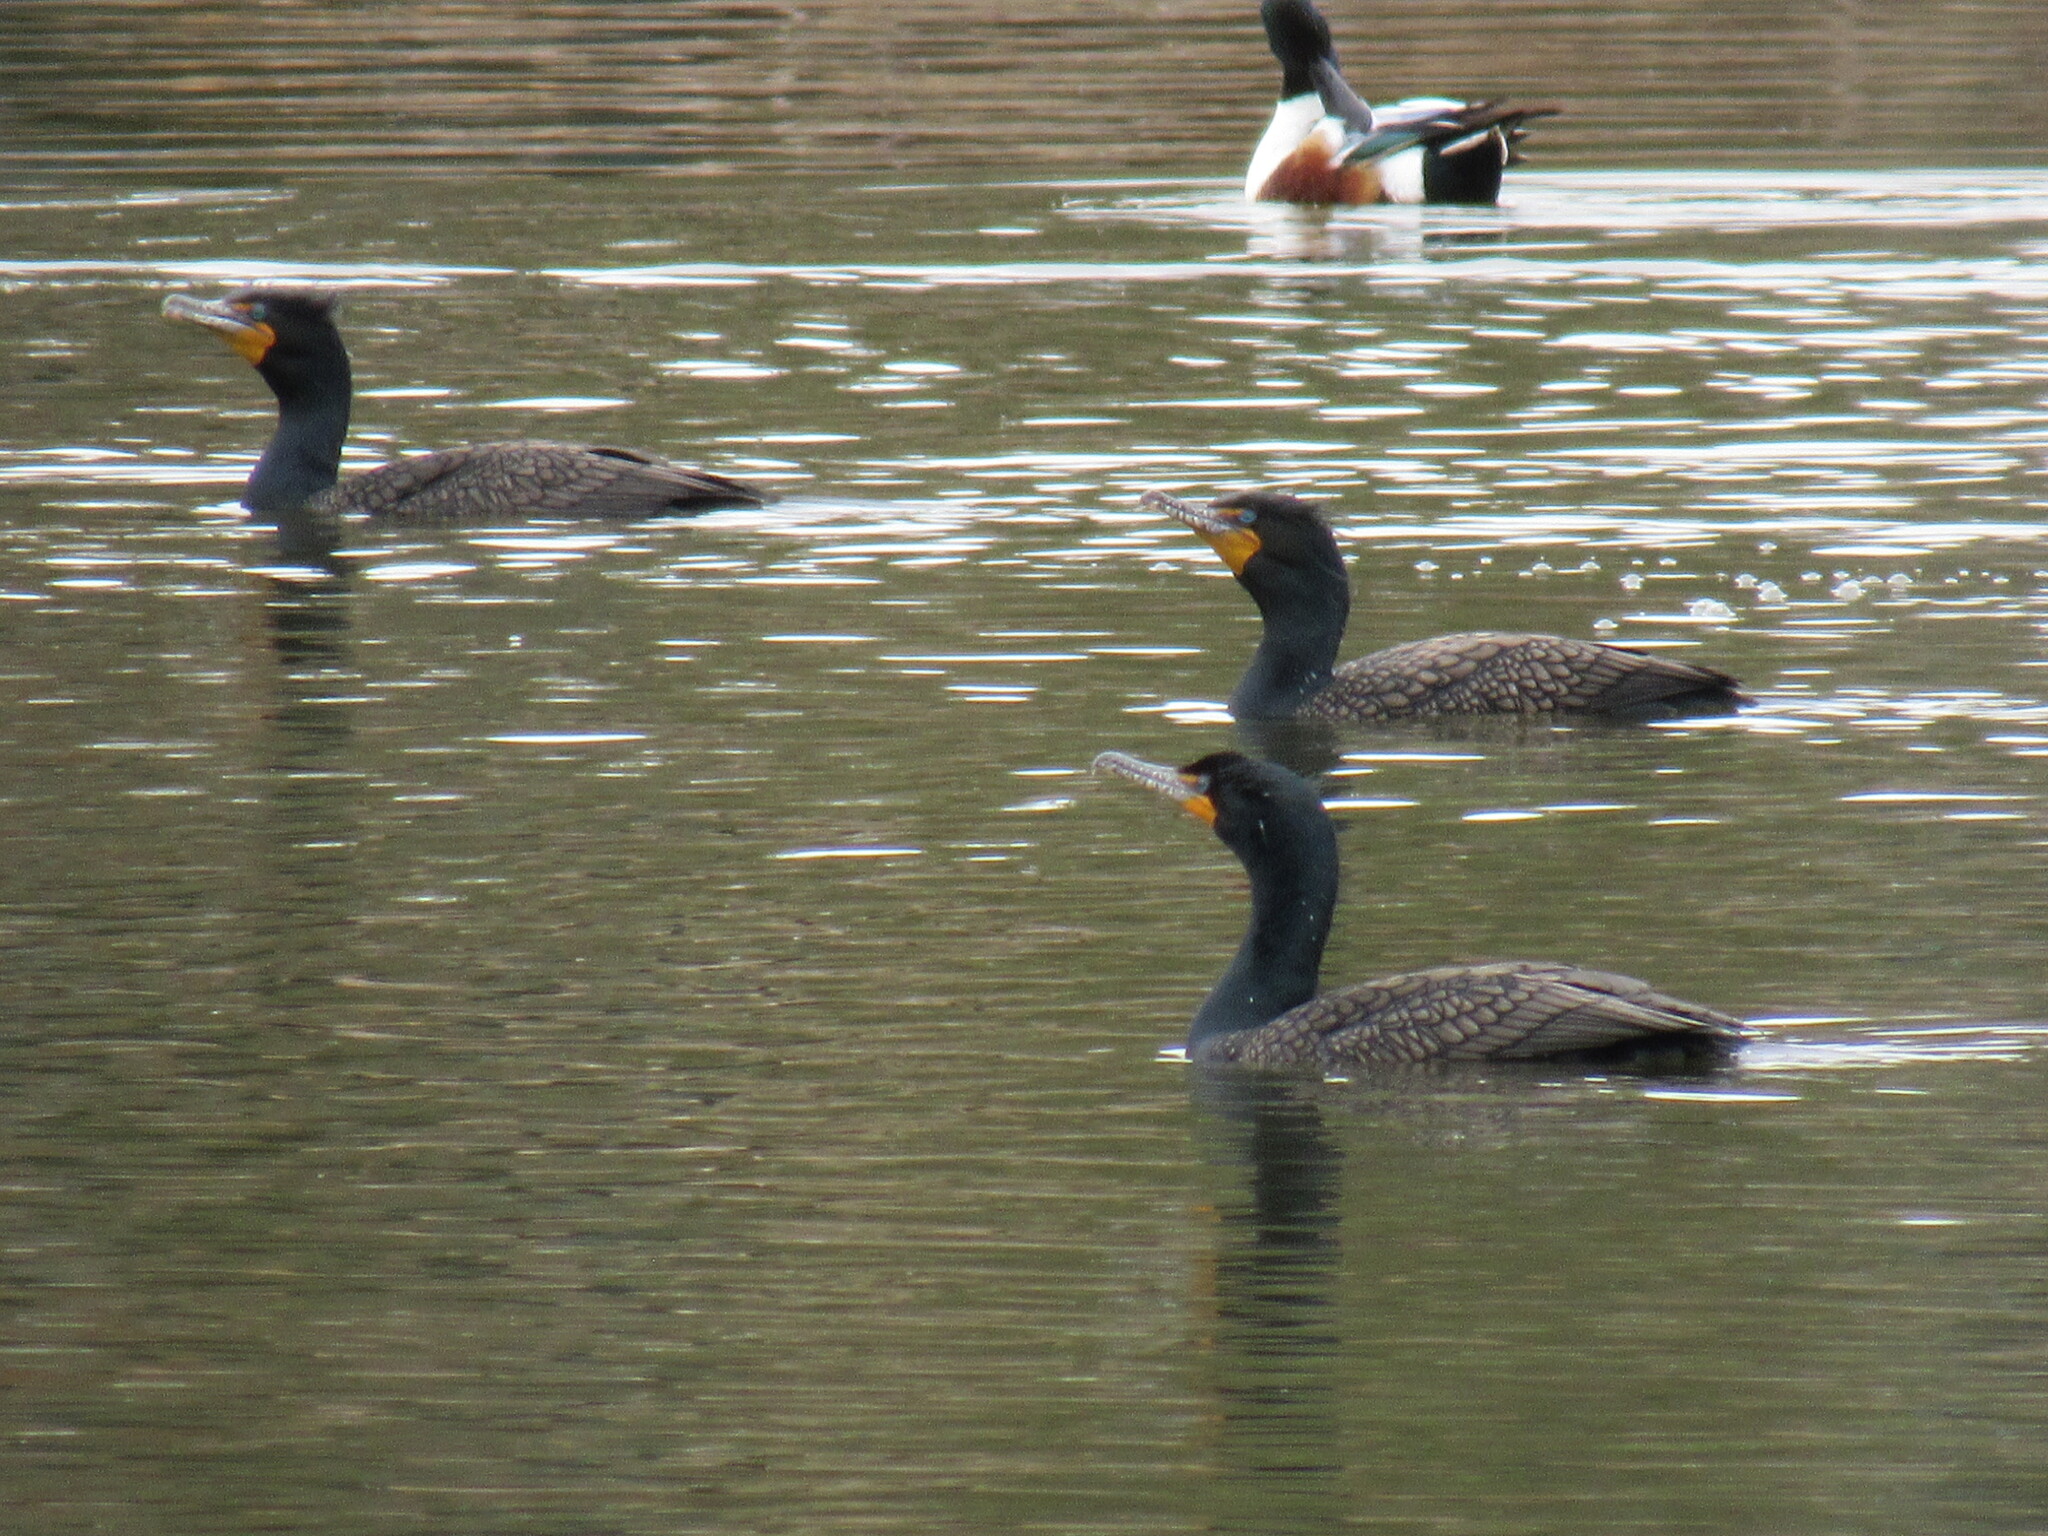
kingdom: Animalia
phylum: Chordata
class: Aves
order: Suliformes
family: Phalacrocoracidae
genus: Phalacrocorax
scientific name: Phalacrocorax auritus
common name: Double-crested cormorant
